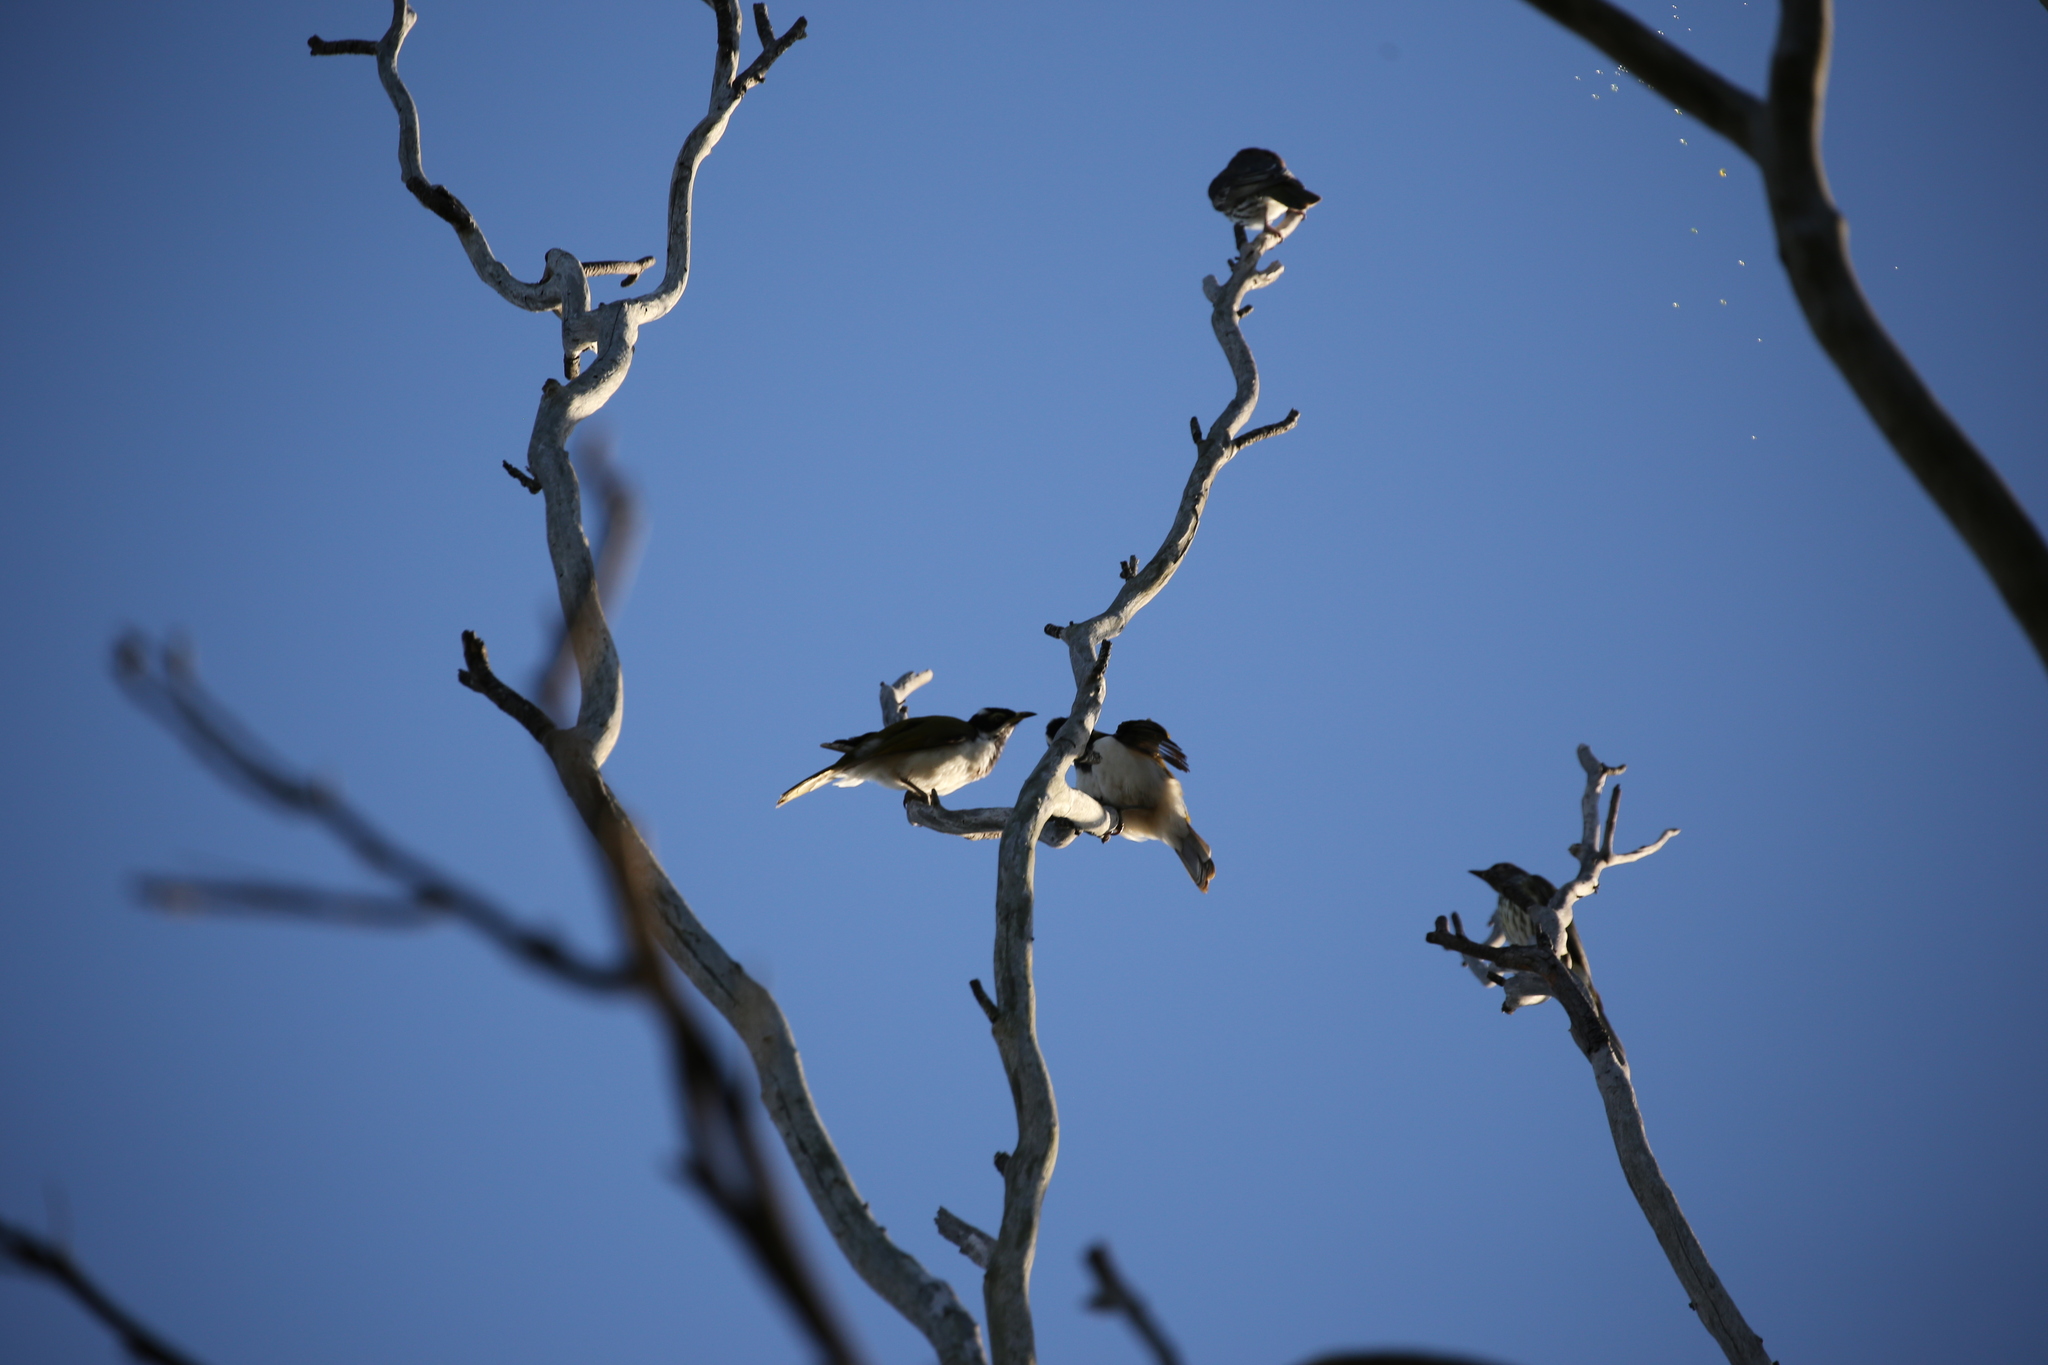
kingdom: Animalia
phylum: Chordata
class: Aves
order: Passeriformes
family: Meliphagidae
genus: Entomyzon
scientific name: Entomyzon cyanotis
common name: Blue-faced honeyeater
